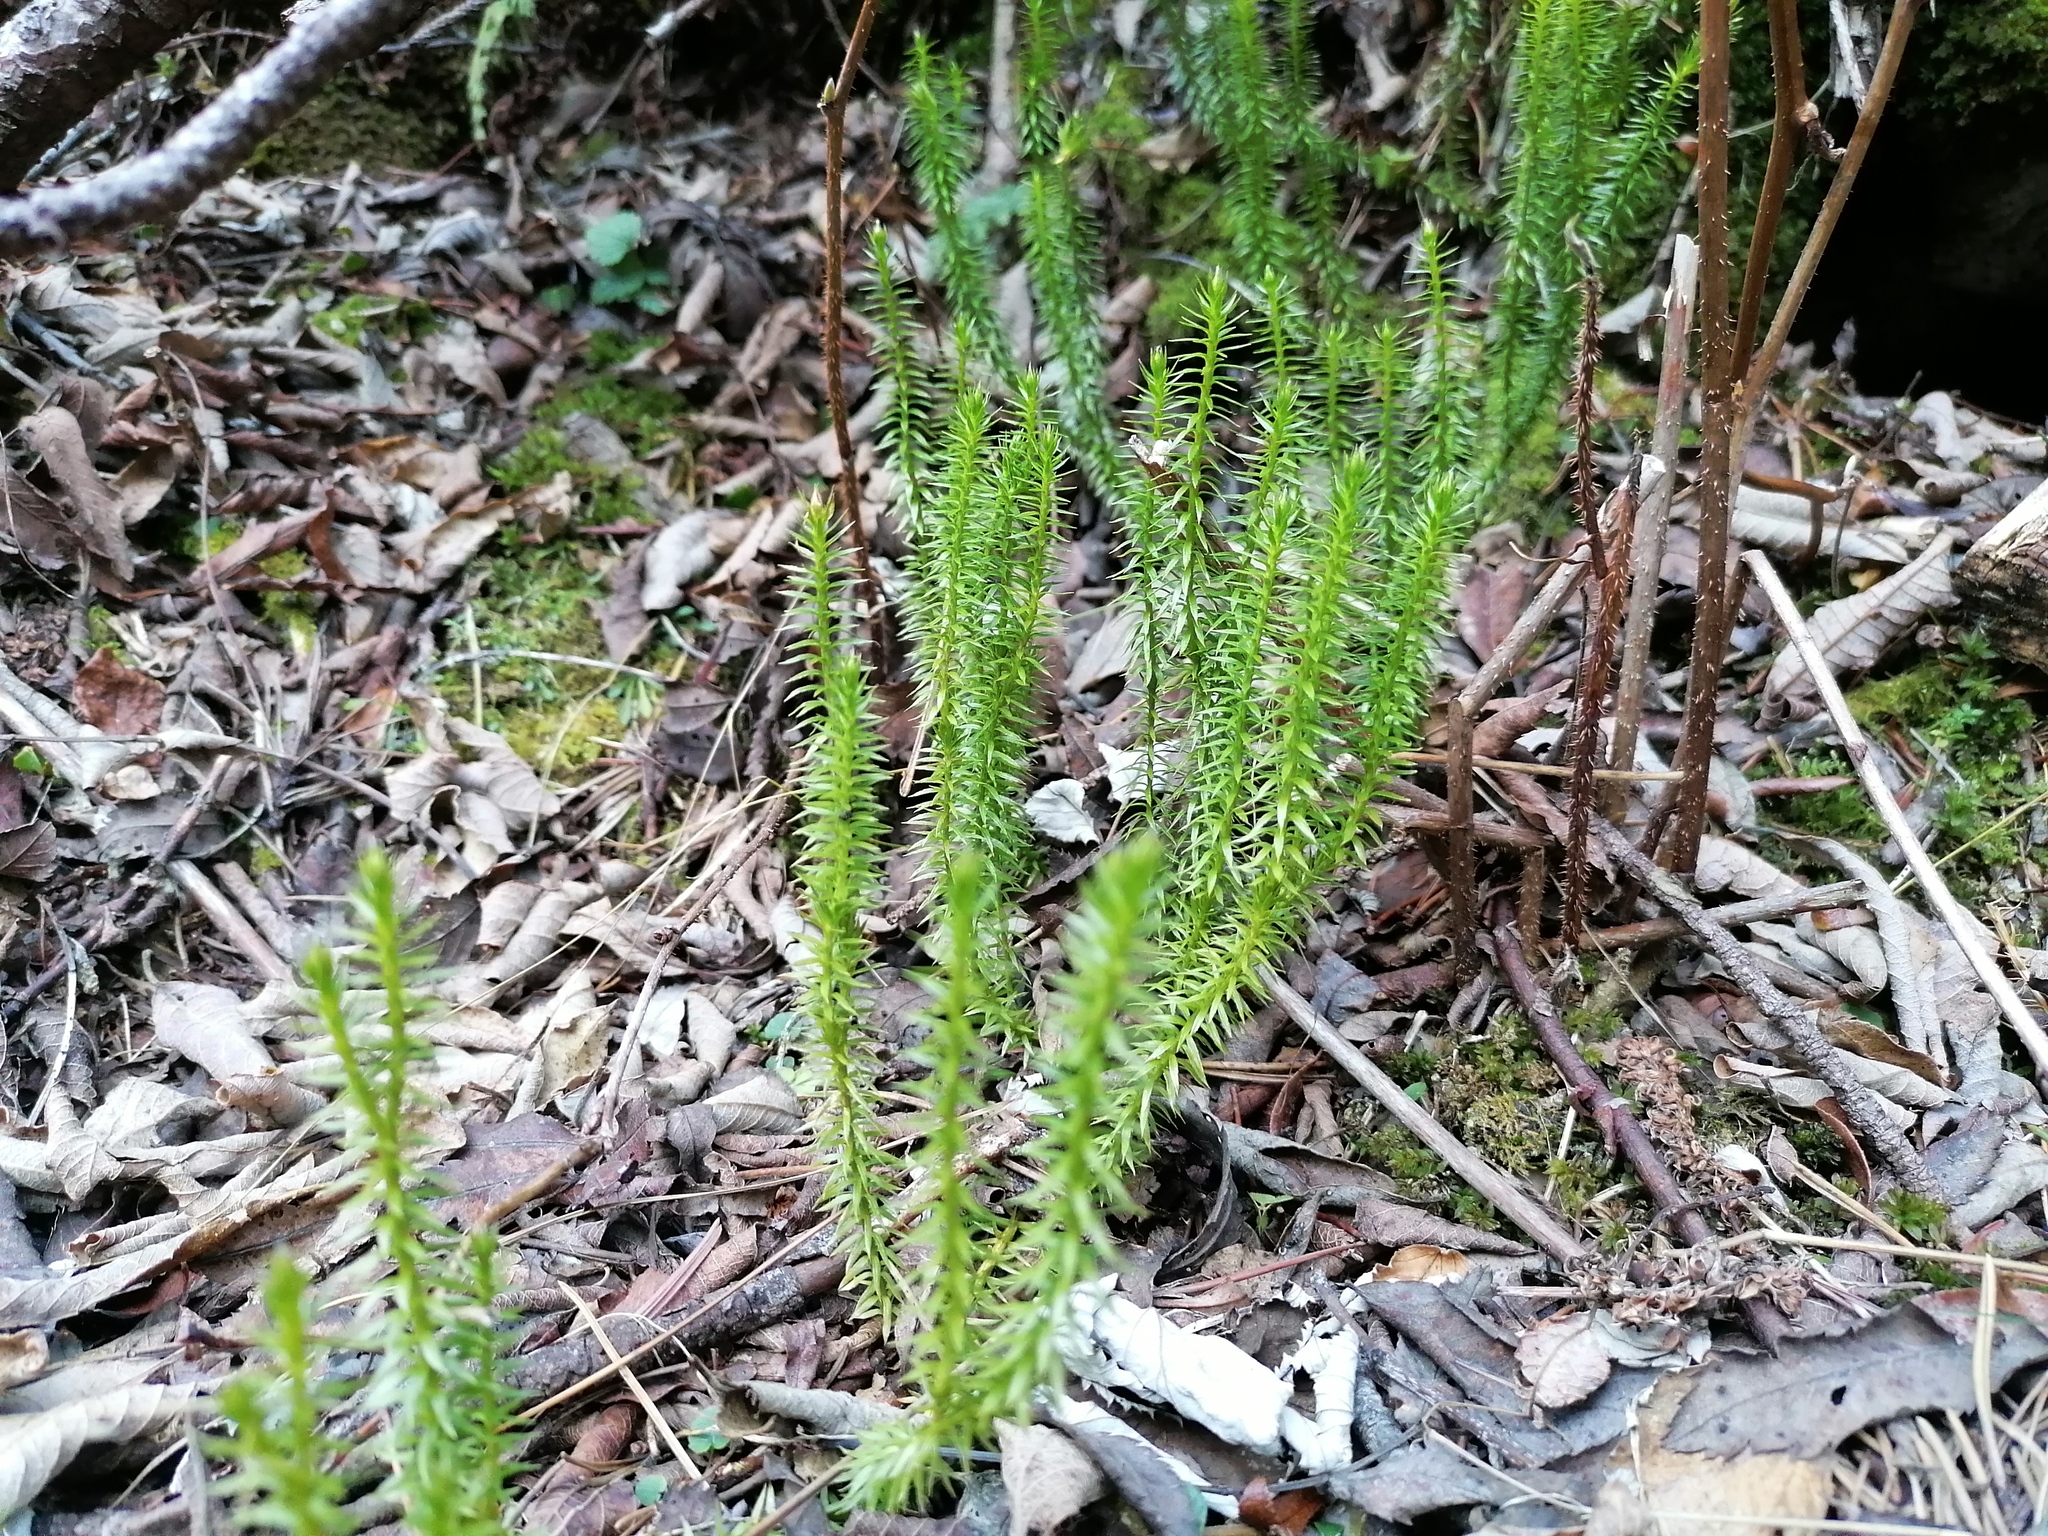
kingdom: Plantae
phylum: Tracheophyta
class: Lycopodiopsida
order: Lycopodiales
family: Lycopodiaceae
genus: Spinulum
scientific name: Spinulum annotinum
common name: Interrupted club-moss
